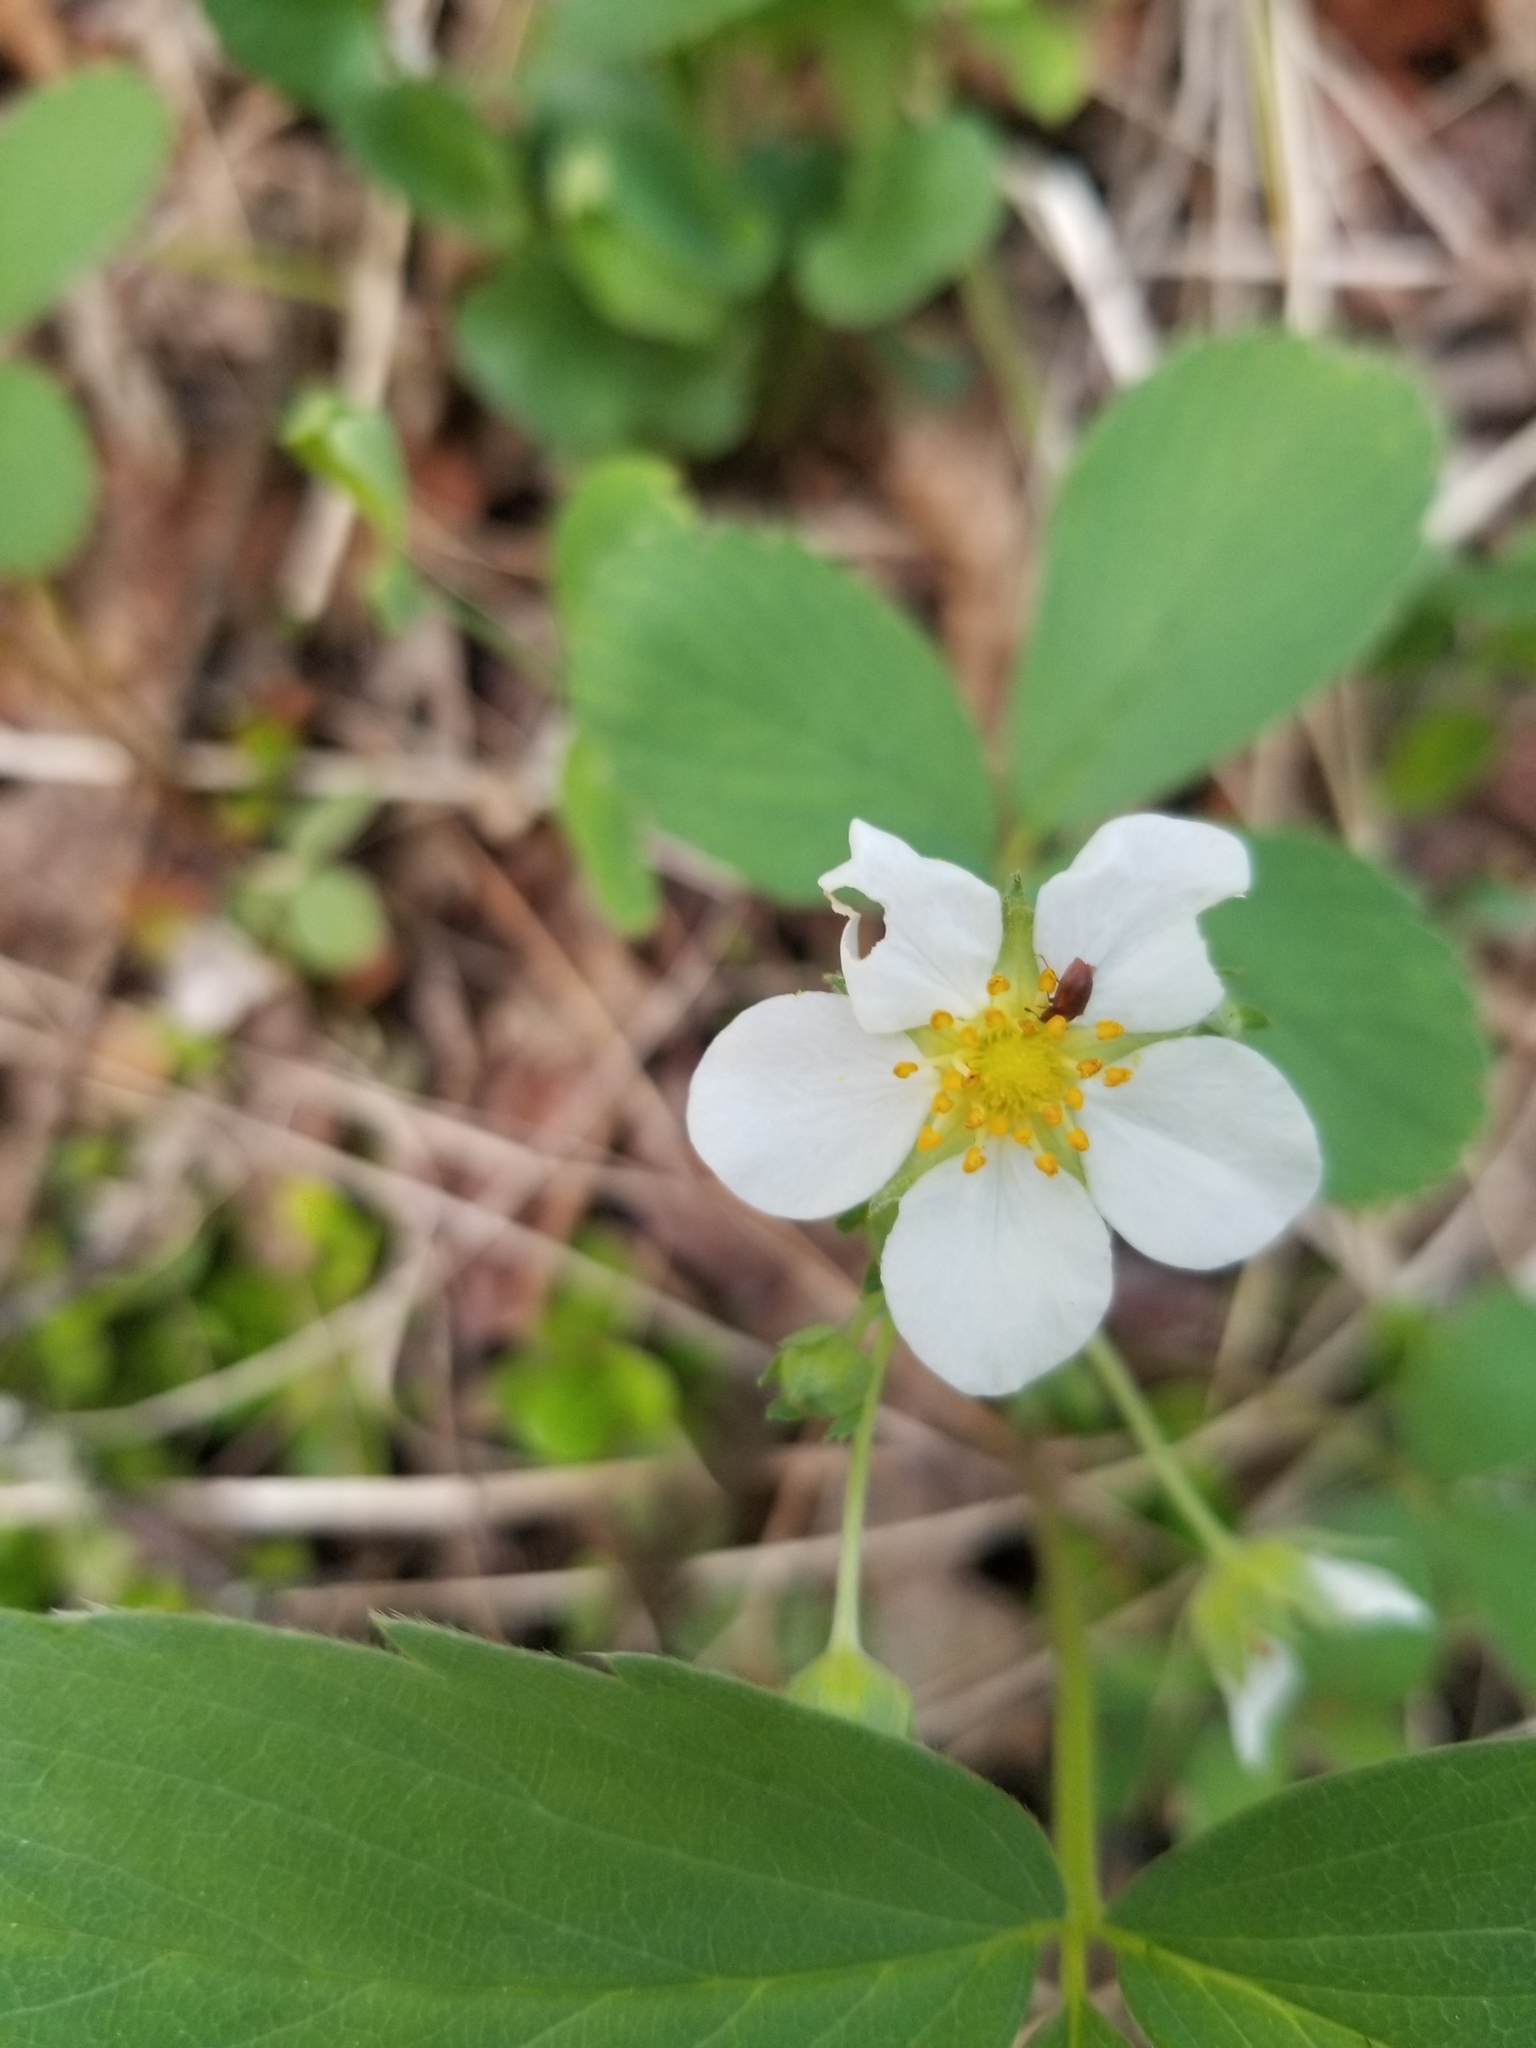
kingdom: Plantae
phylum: Tracheophyta
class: Magnoliopsida
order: Rosales
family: Rosaceae
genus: Fragaria
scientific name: Fragaria virginiana
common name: Thickleaved wild strawberry
